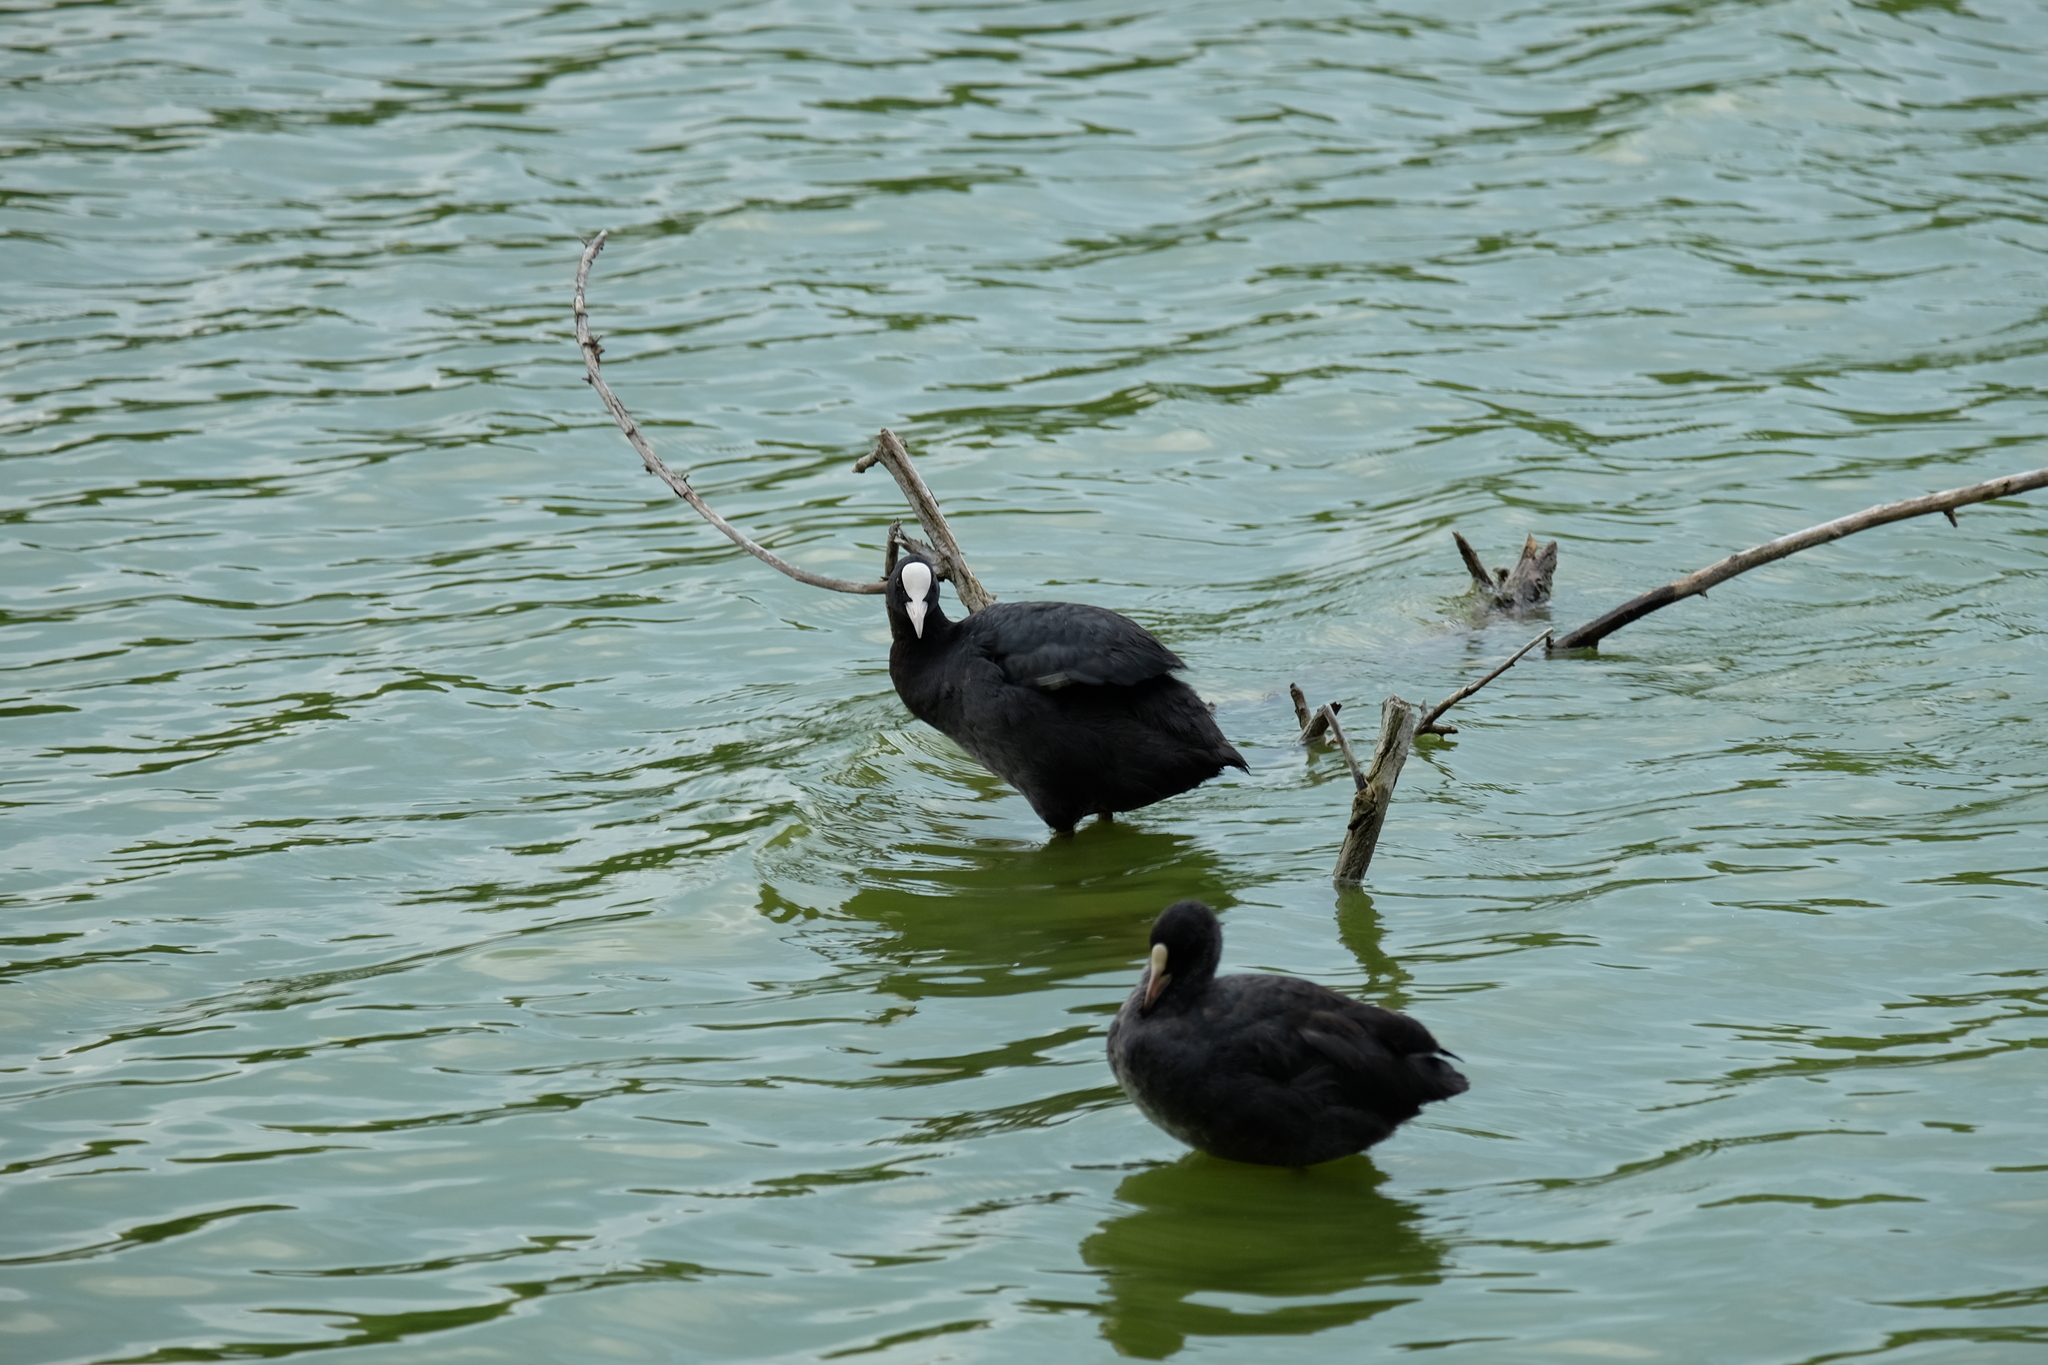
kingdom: Animalia
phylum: Chordata
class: Aves
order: Gruiformes
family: Rallidae
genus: Fulica
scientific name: Fulica atra
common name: Eurasian coot
